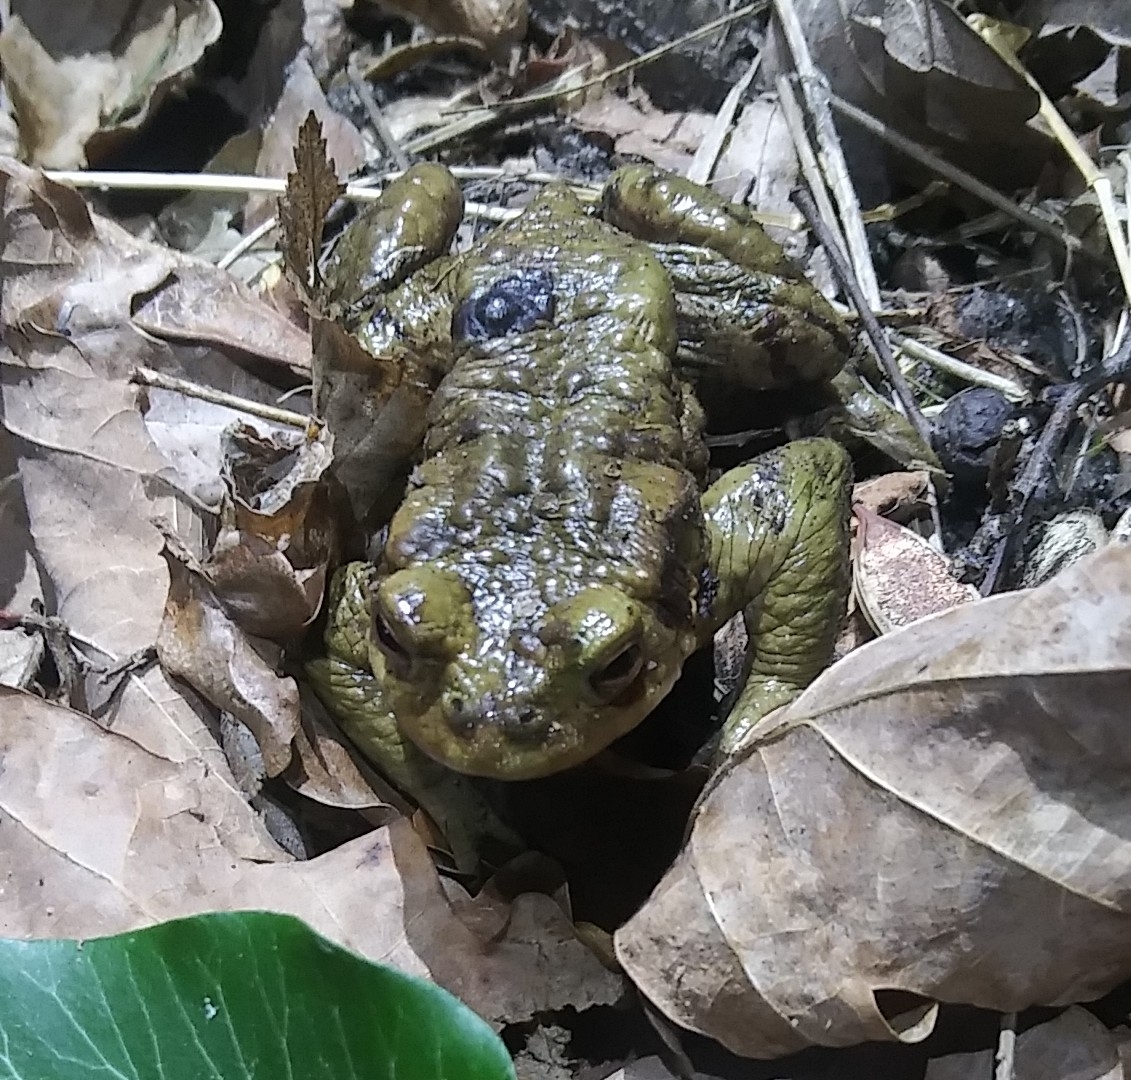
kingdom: Animalia
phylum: Chordata
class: Amphibia
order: Anura
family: Bufonidae
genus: Bufo
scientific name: Bufo bufo
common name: Common toad
